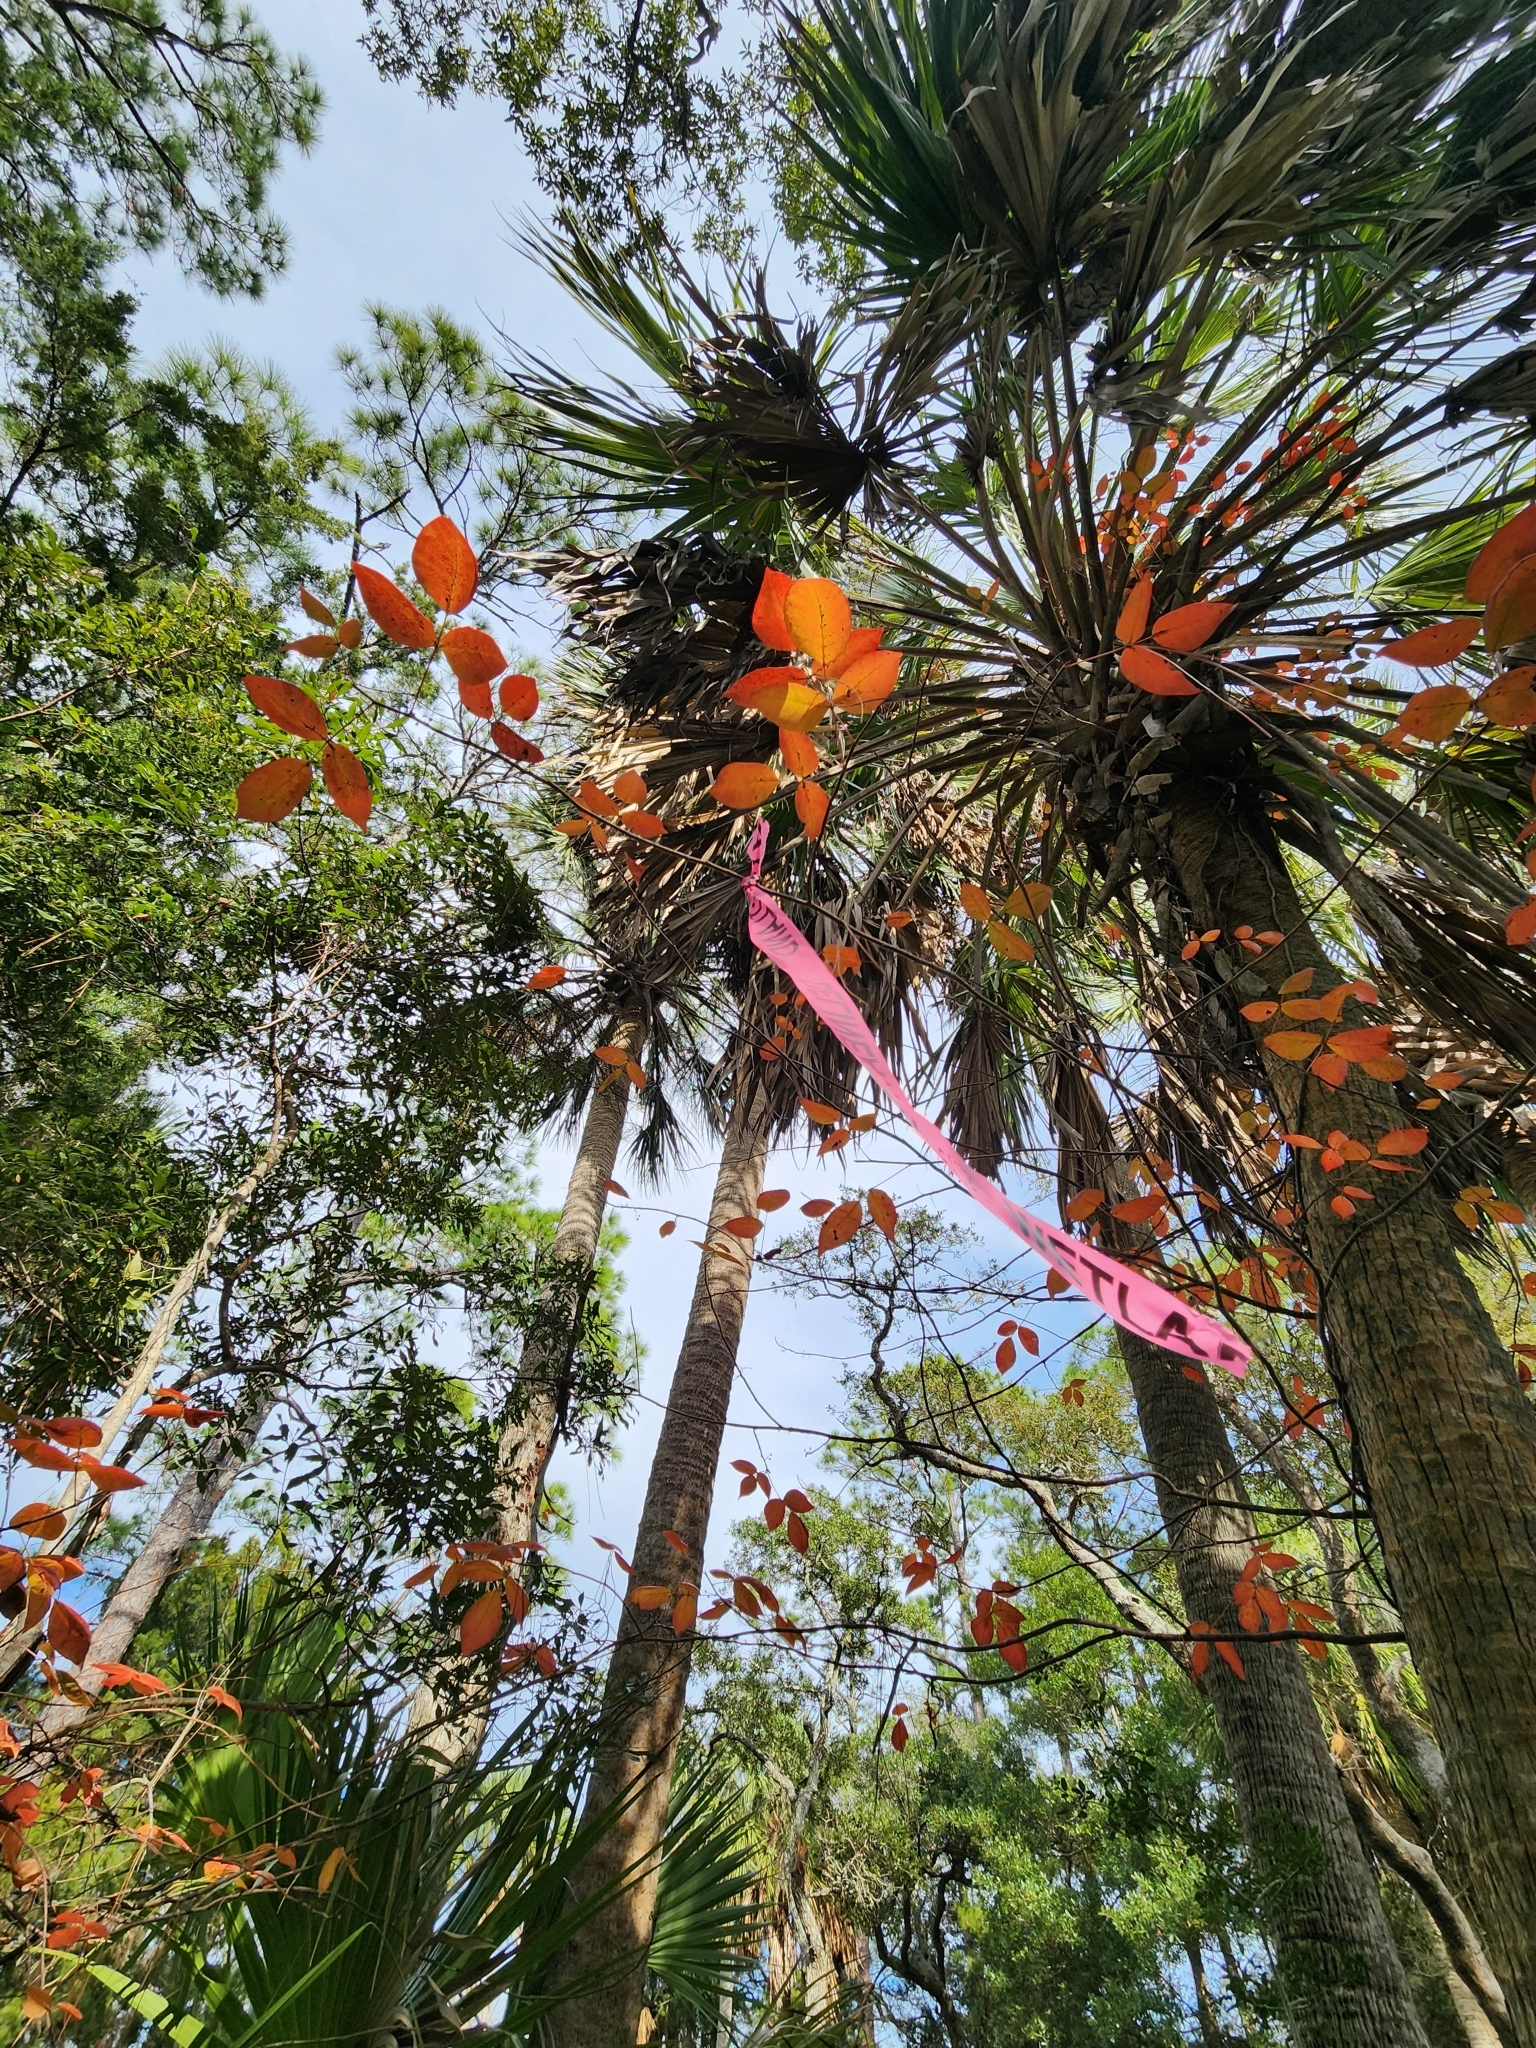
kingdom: Plantae
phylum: Tracheophyta
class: Magnoliopsida
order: Sapindales
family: Anacardiaceae
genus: Toxicodendron
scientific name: Toxicodendron radicans
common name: Poison ivy
